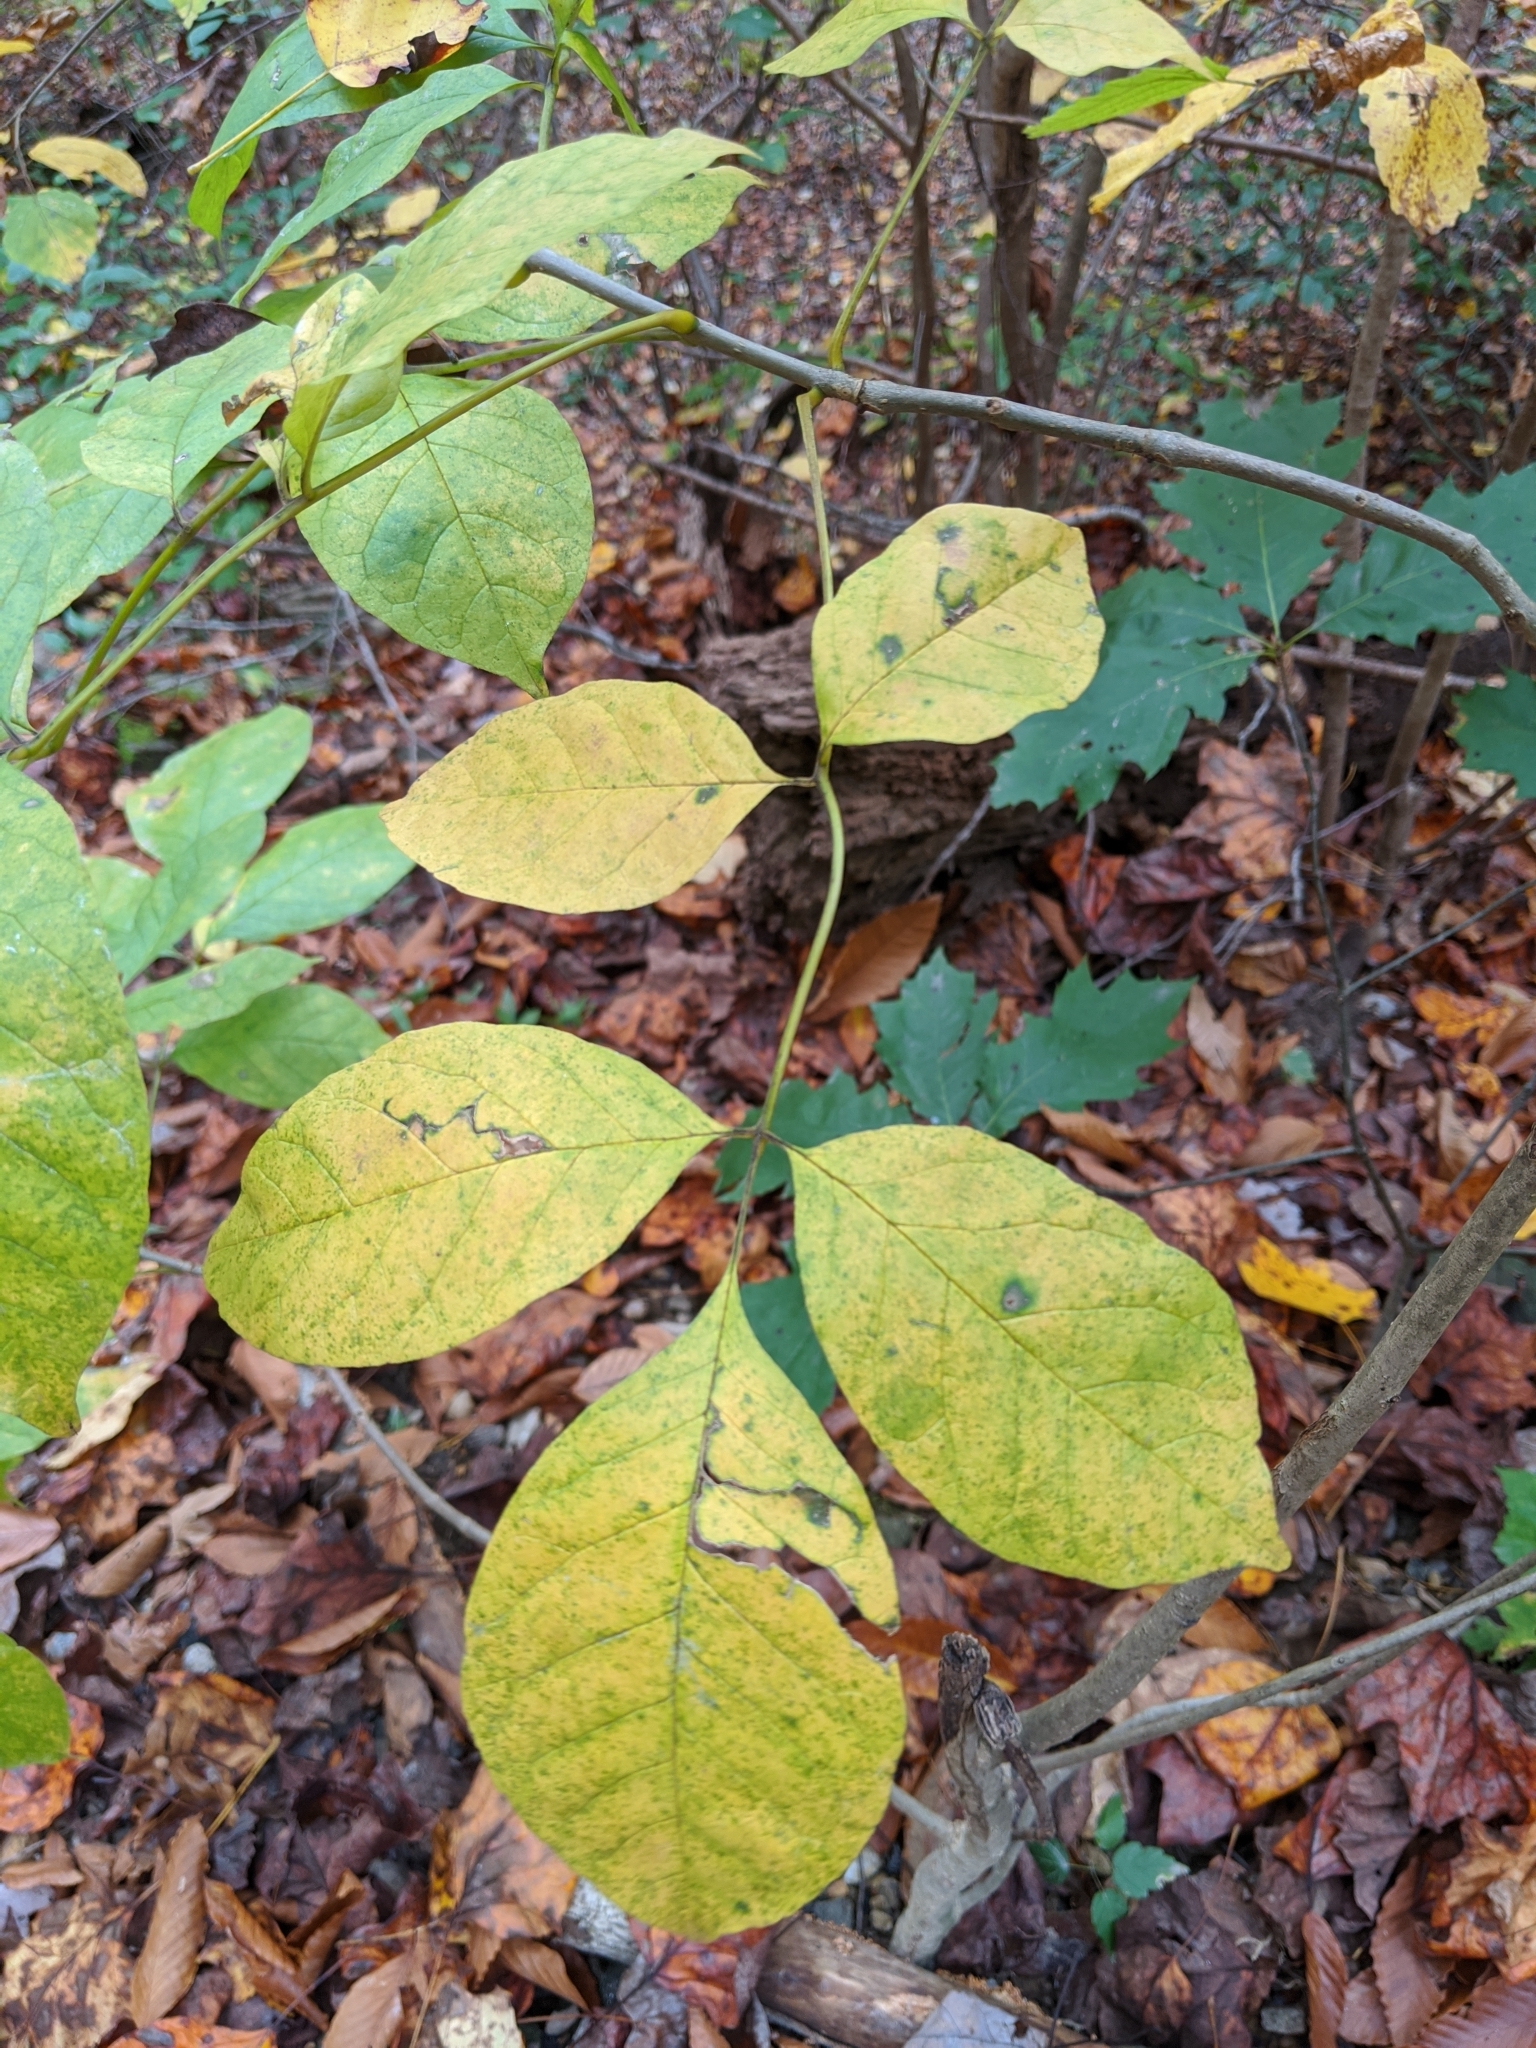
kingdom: Plantae
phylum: Tracheophyta
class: Magnoliopsida
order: Lamiales
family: Oleaceae
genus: Fraxinus
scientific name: Fraxinus americana
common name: White ash
